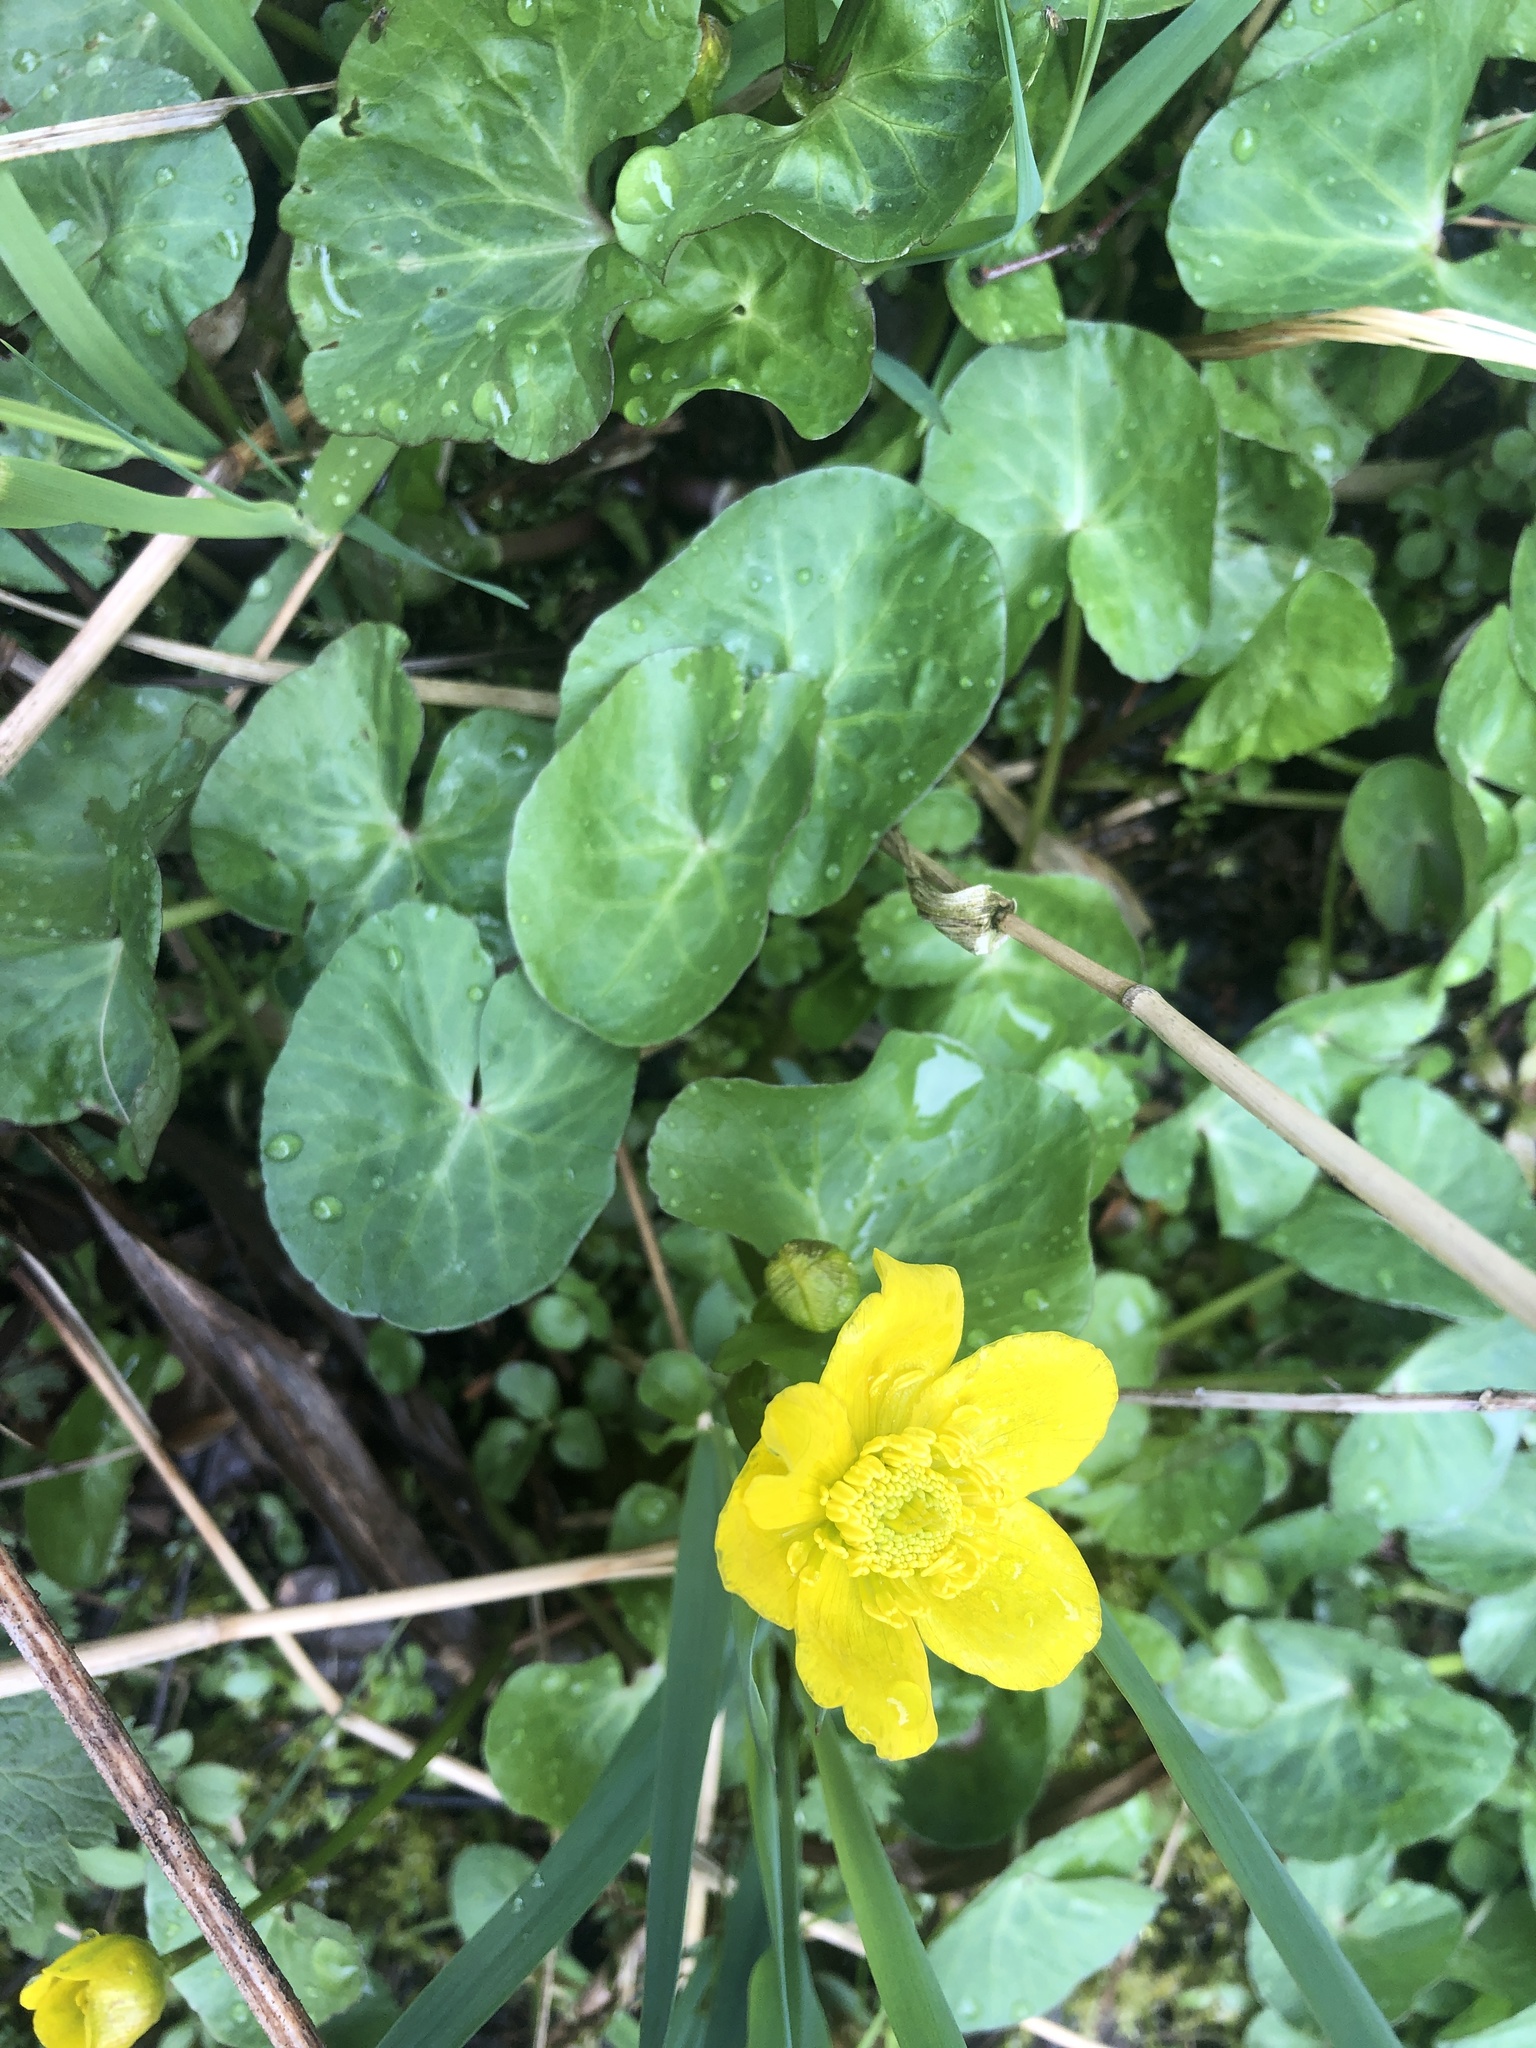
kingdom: Plantae
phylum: Tracheophyta
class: Magnoliopsida
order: Ranunculales
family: Ranunculaceae
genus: Caltha
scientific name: Caltha palustris
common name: Marsh marigold
